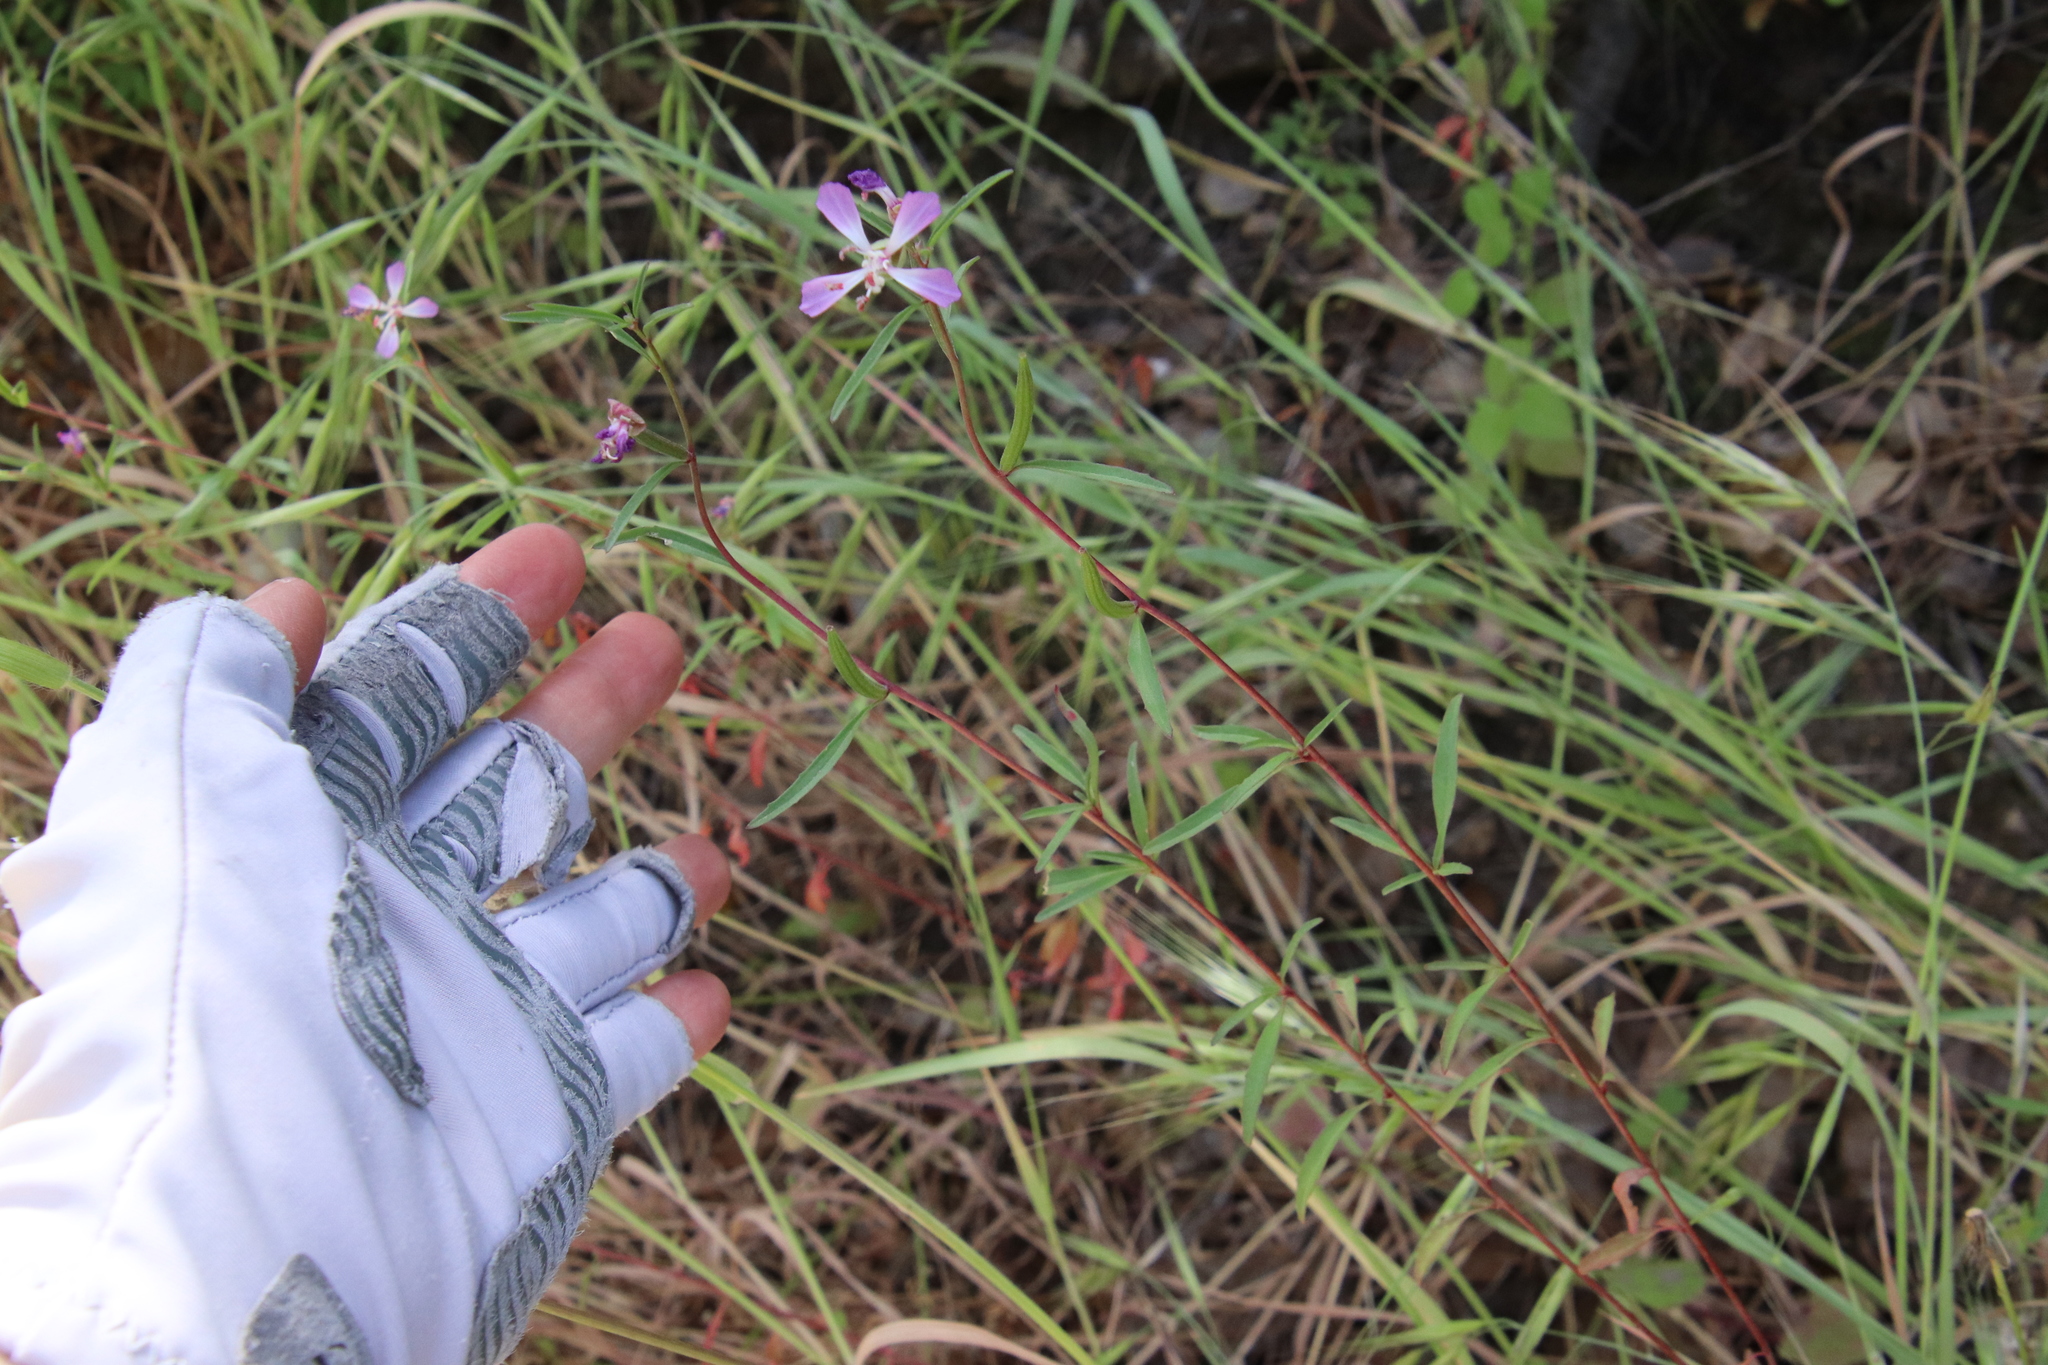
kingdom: Plantae
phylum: Tracheophyta
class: Magnoliopsida
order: Myrtales
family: Onagraceae
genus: Clarkia
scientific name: Clarkia delicata
